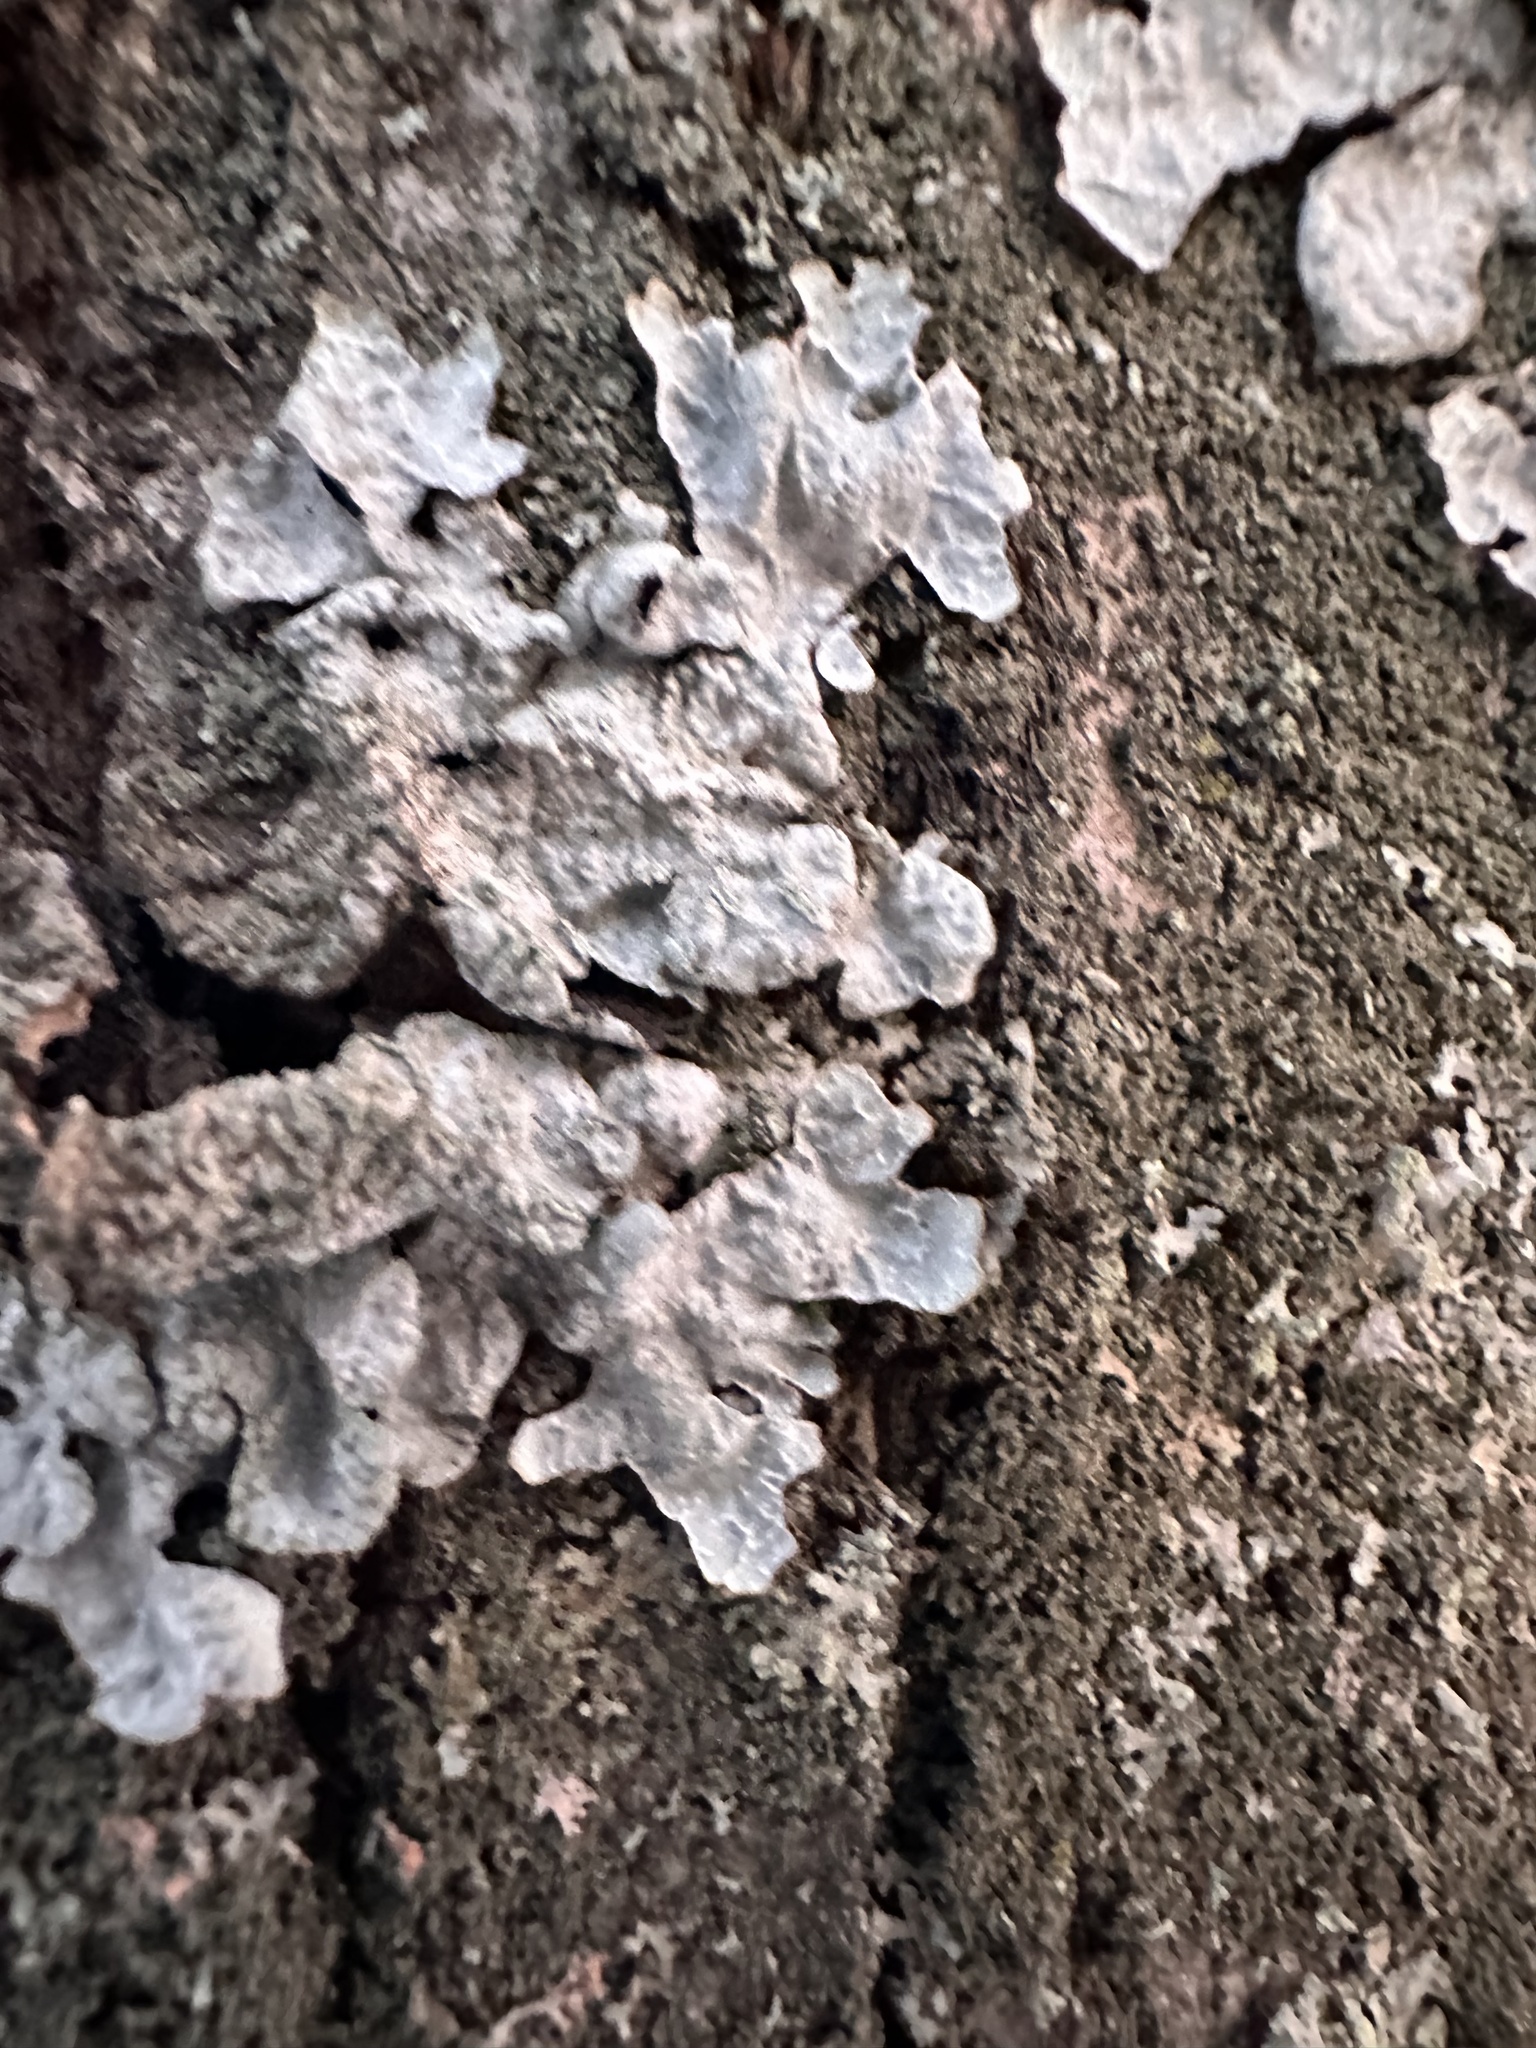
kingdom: Fungi
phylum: Ascomycota
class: Lecanoromycetes
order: Lecanorales
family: Parmeliaceae
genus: Parmelia
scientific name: Parmelia sulcata
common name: Netted shield lichen
